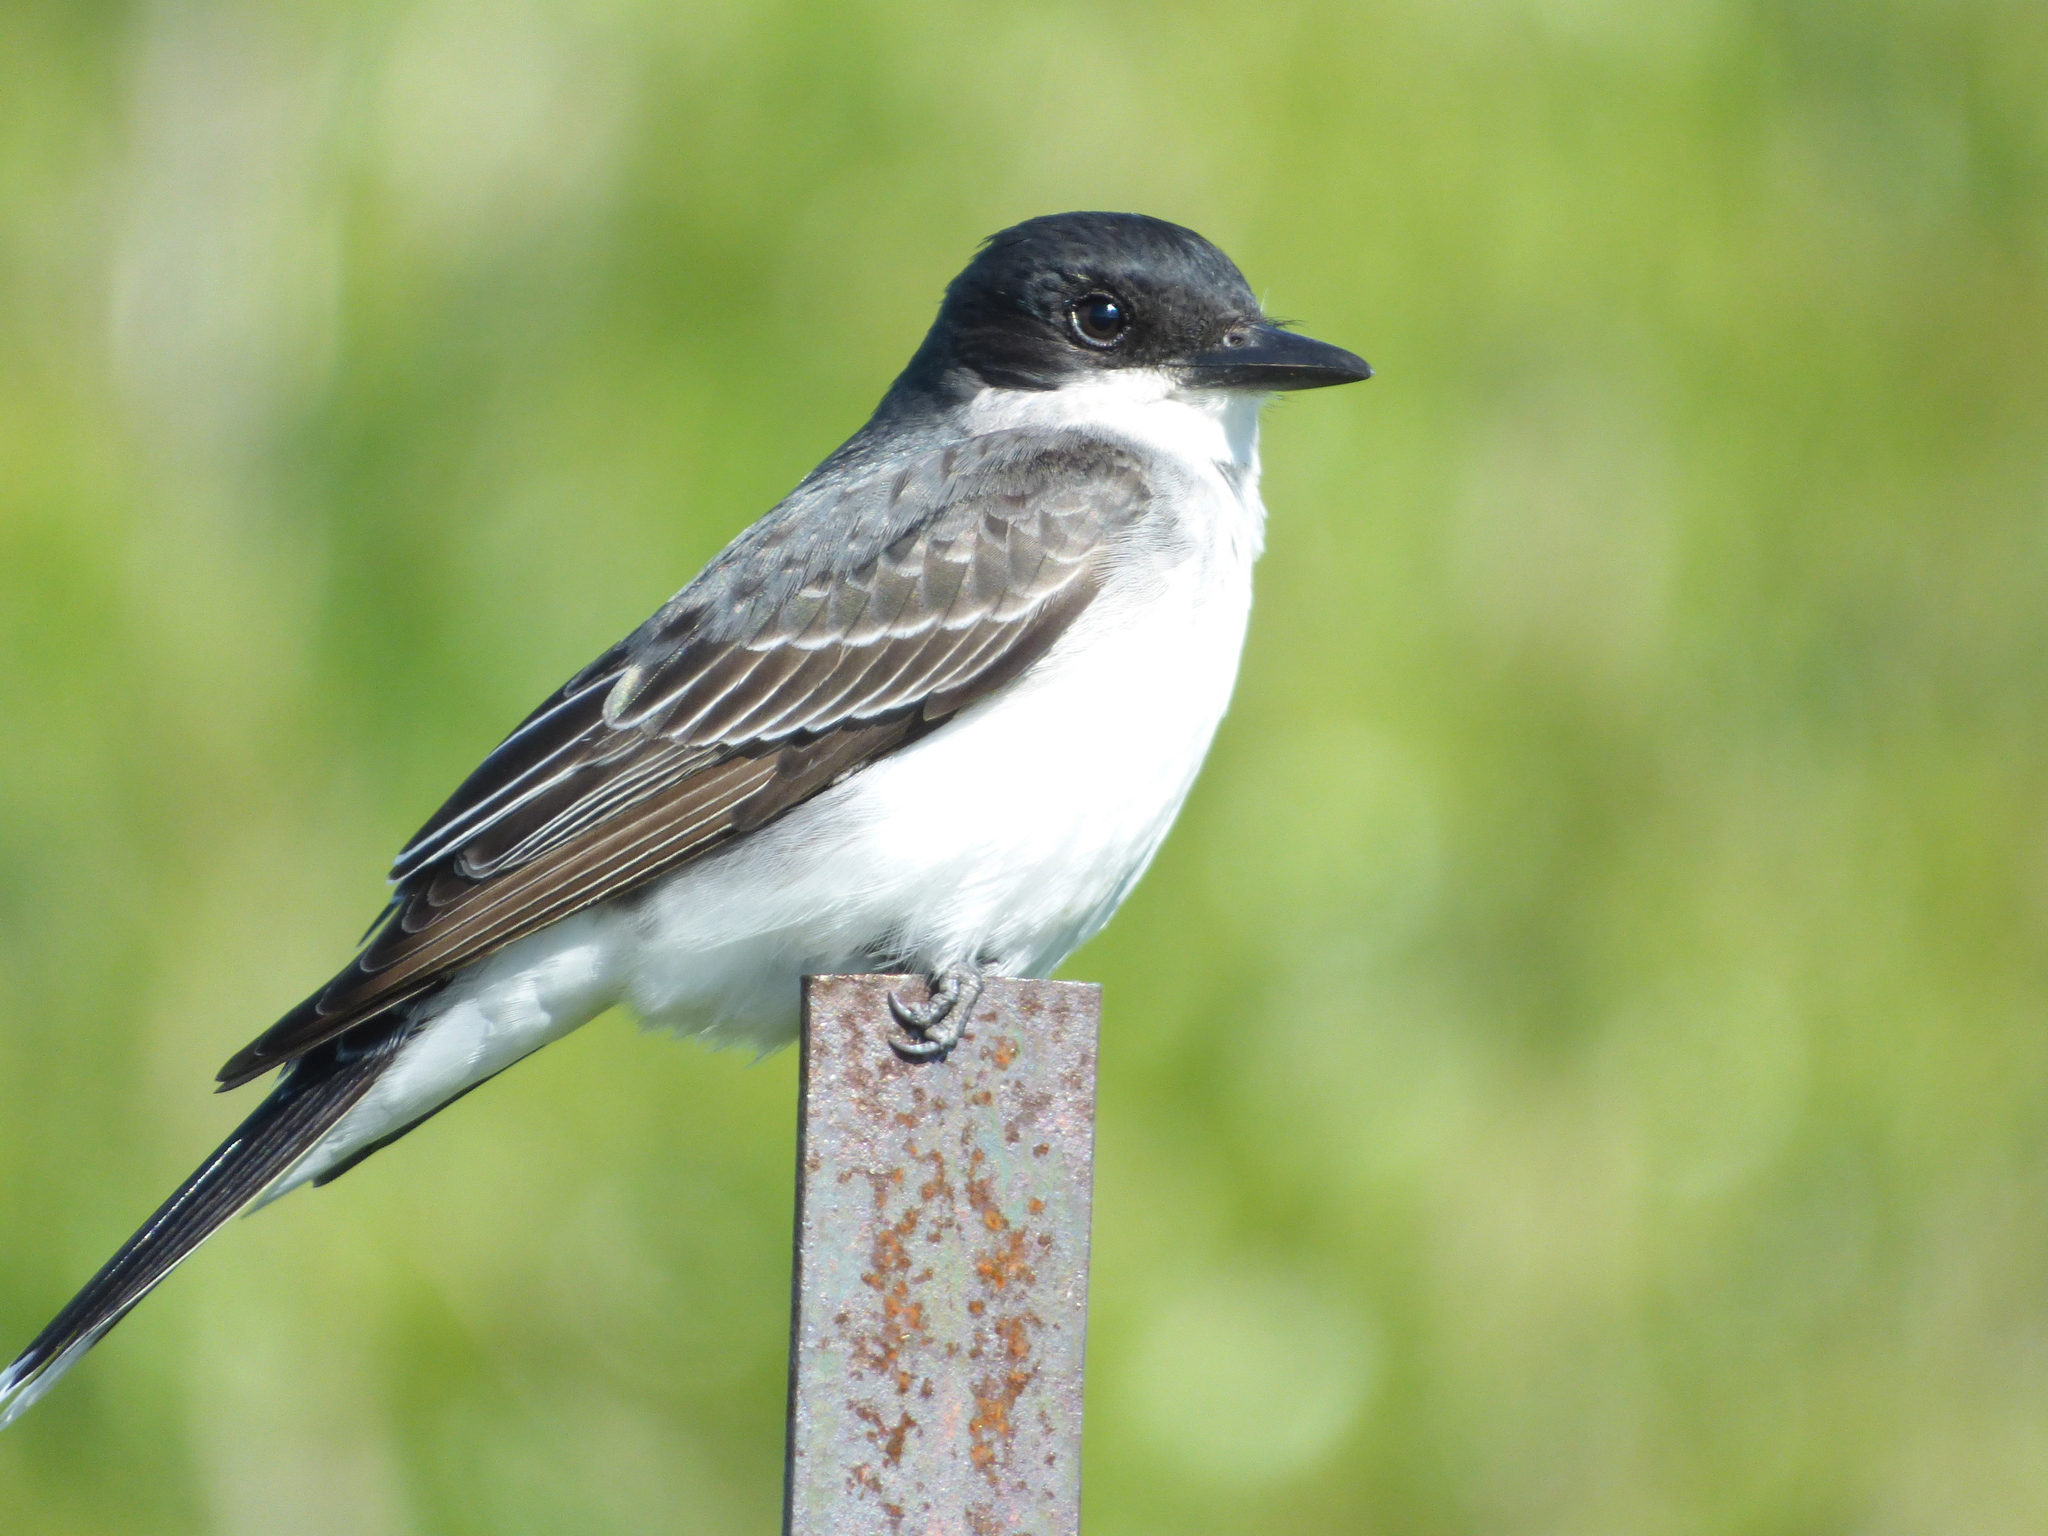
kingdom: Animalia
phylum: Chordata
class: Aves
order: Passeriformes
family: Tyrannidae
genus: Tyrannus
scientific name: Tyrannus tyrannus
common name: Eastern kingbird
